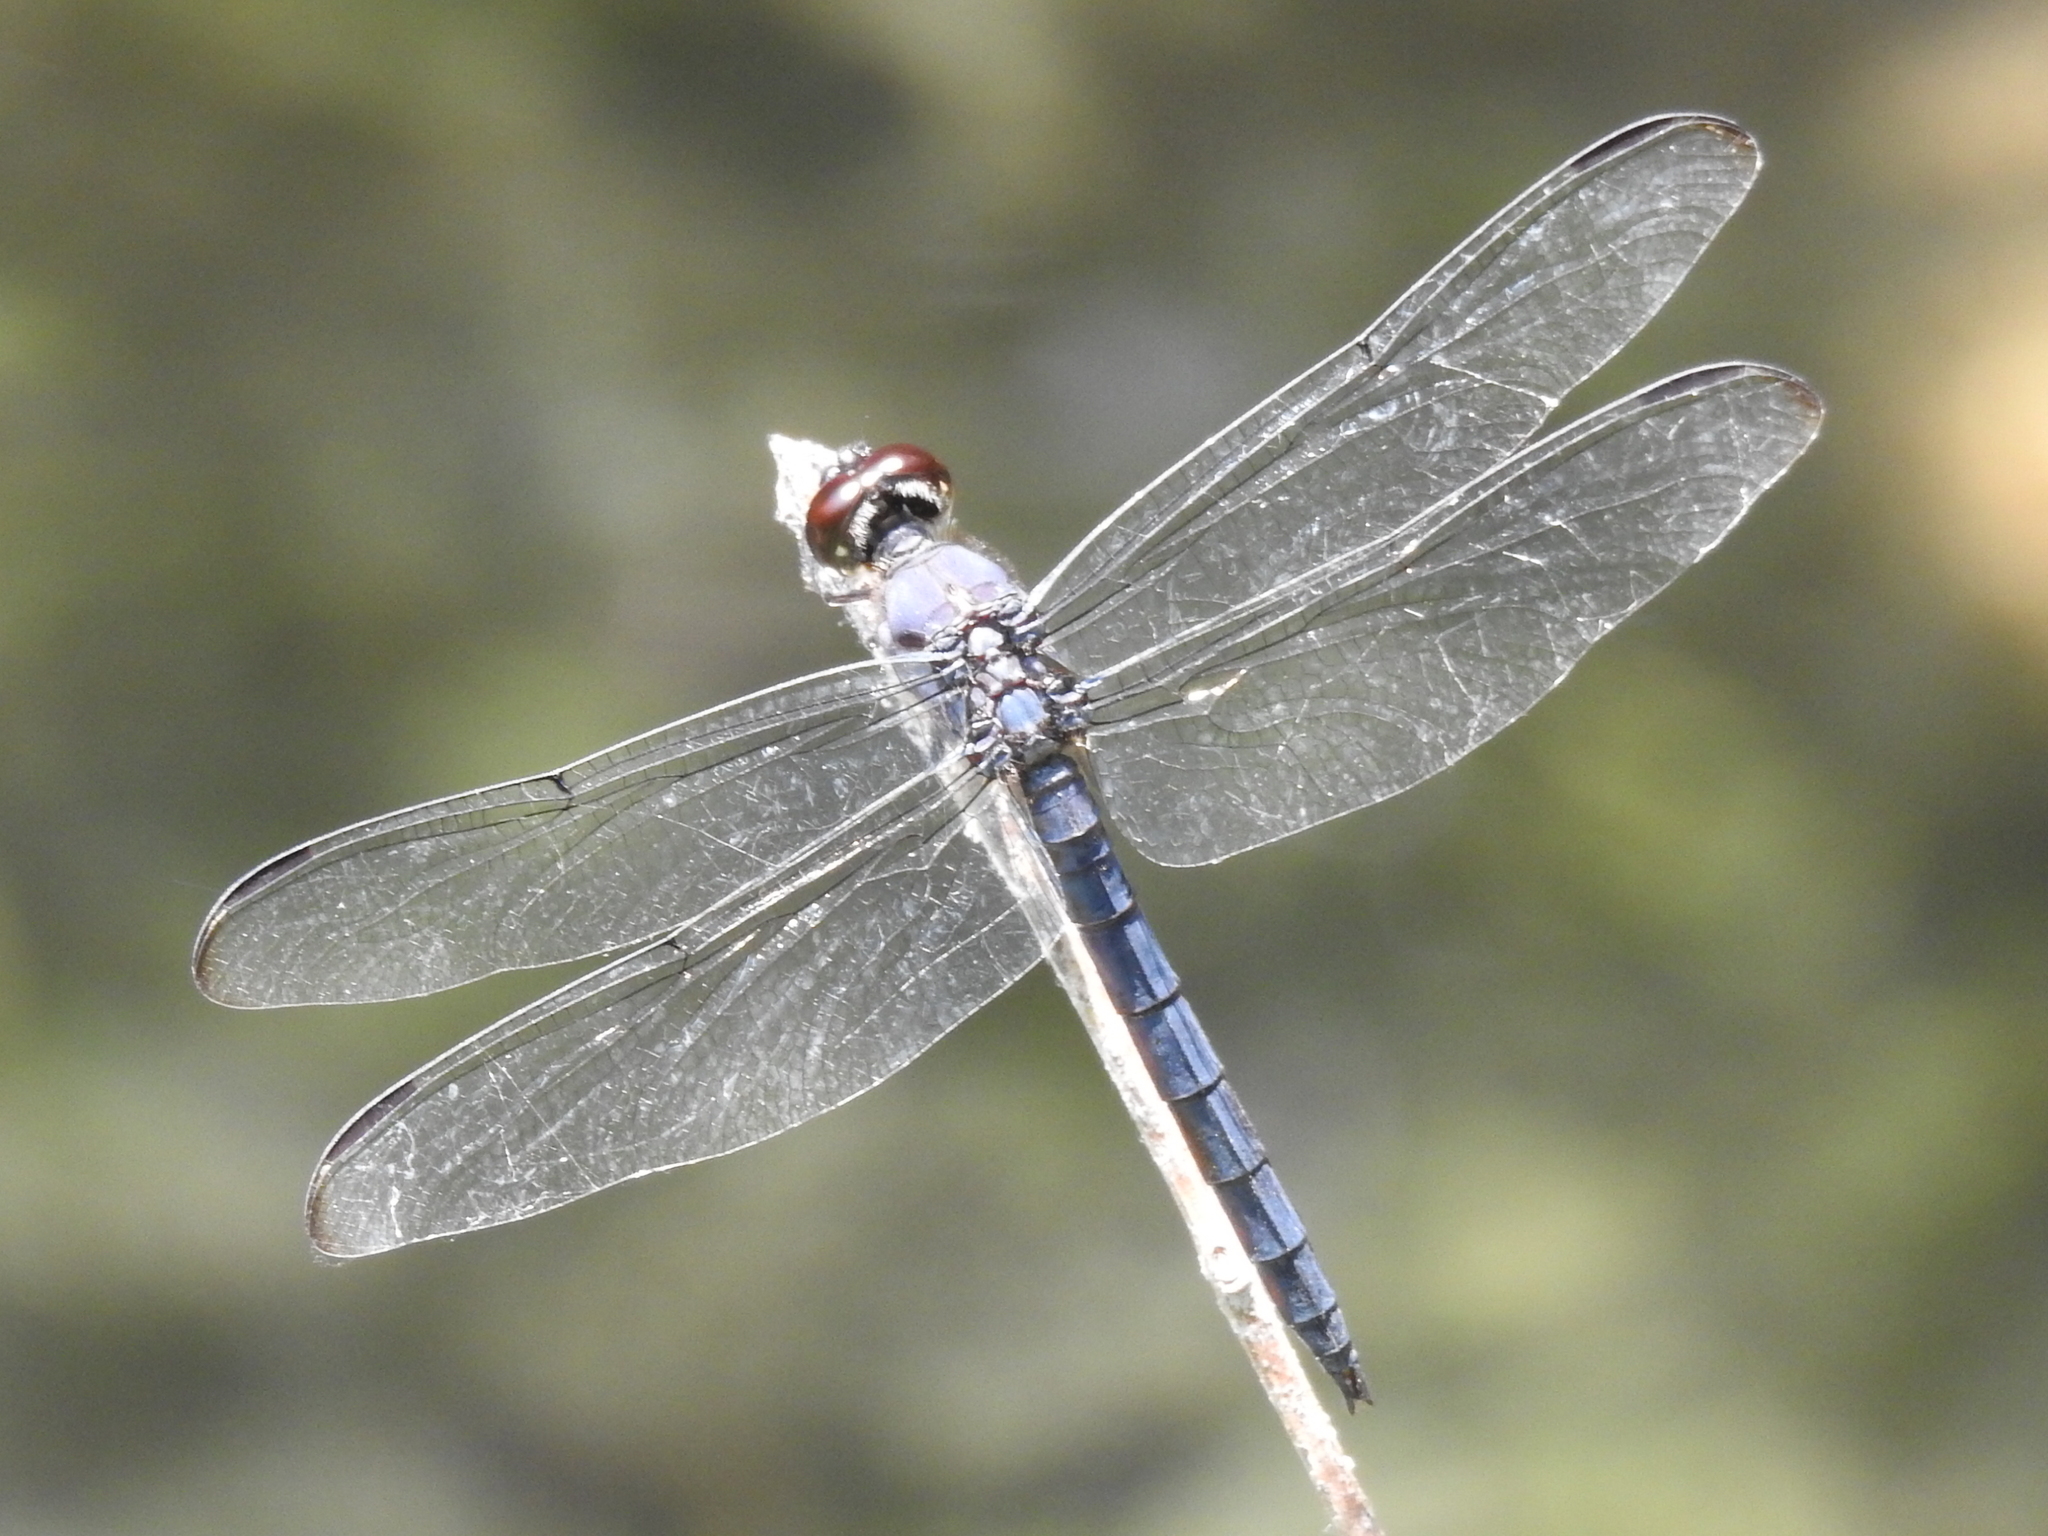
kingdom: Animalia
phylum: Arthropoda
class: Insecta
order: Odonata
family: Libellulidae
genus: Libellula
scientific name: Libellula incesta
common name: Slaty skimmer
